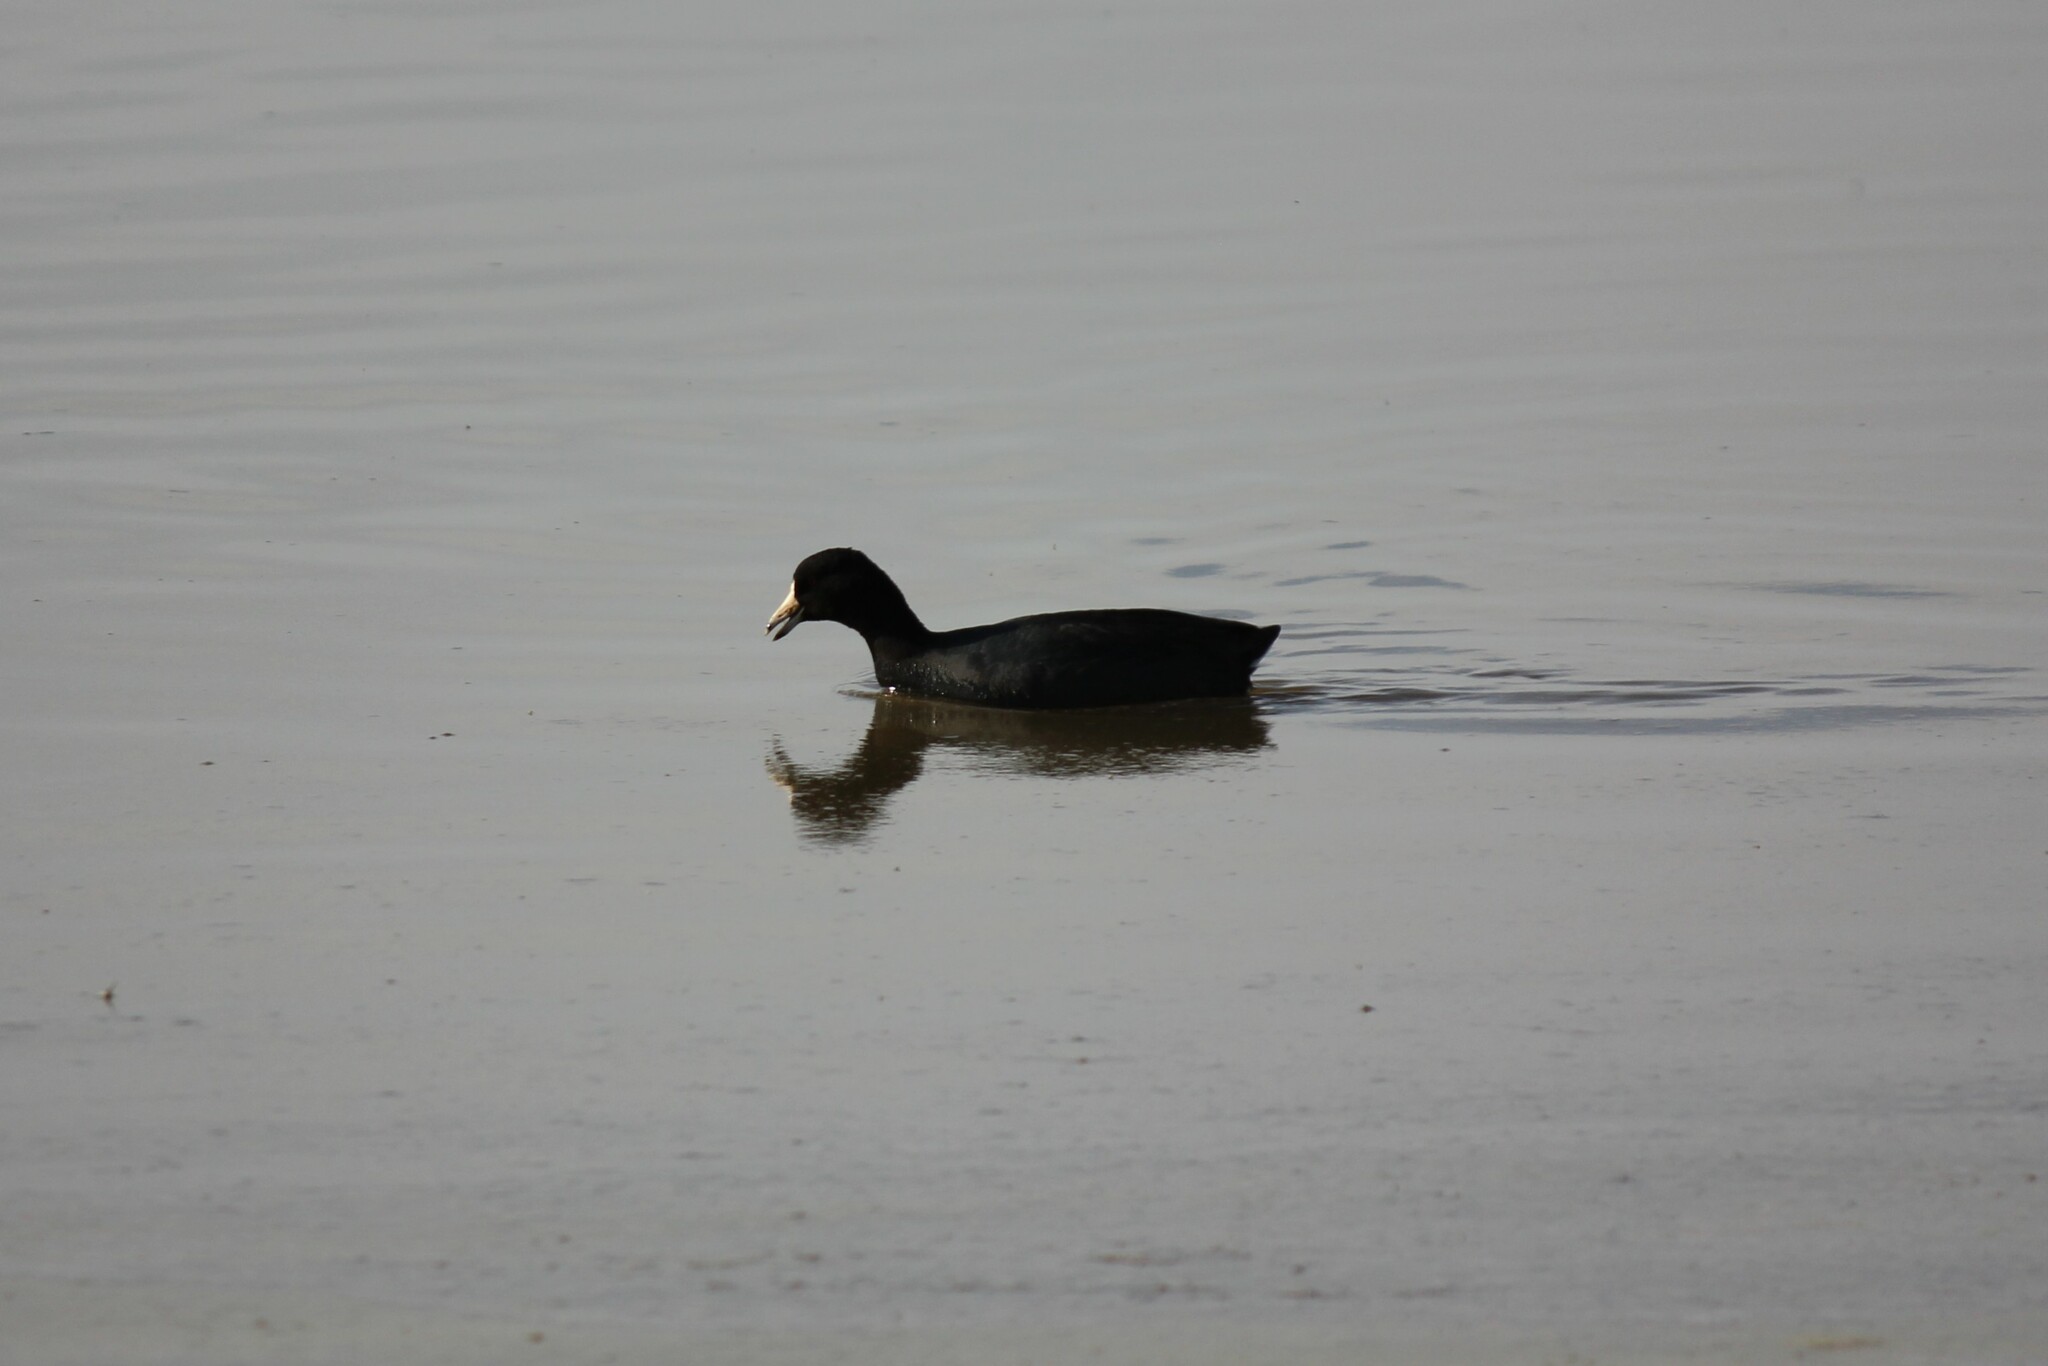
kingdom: Animalia
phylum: Chordata
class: Aves
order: Gruiformes
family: Rallidae
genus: Fulica
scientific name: Fulica americana
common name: American coot
